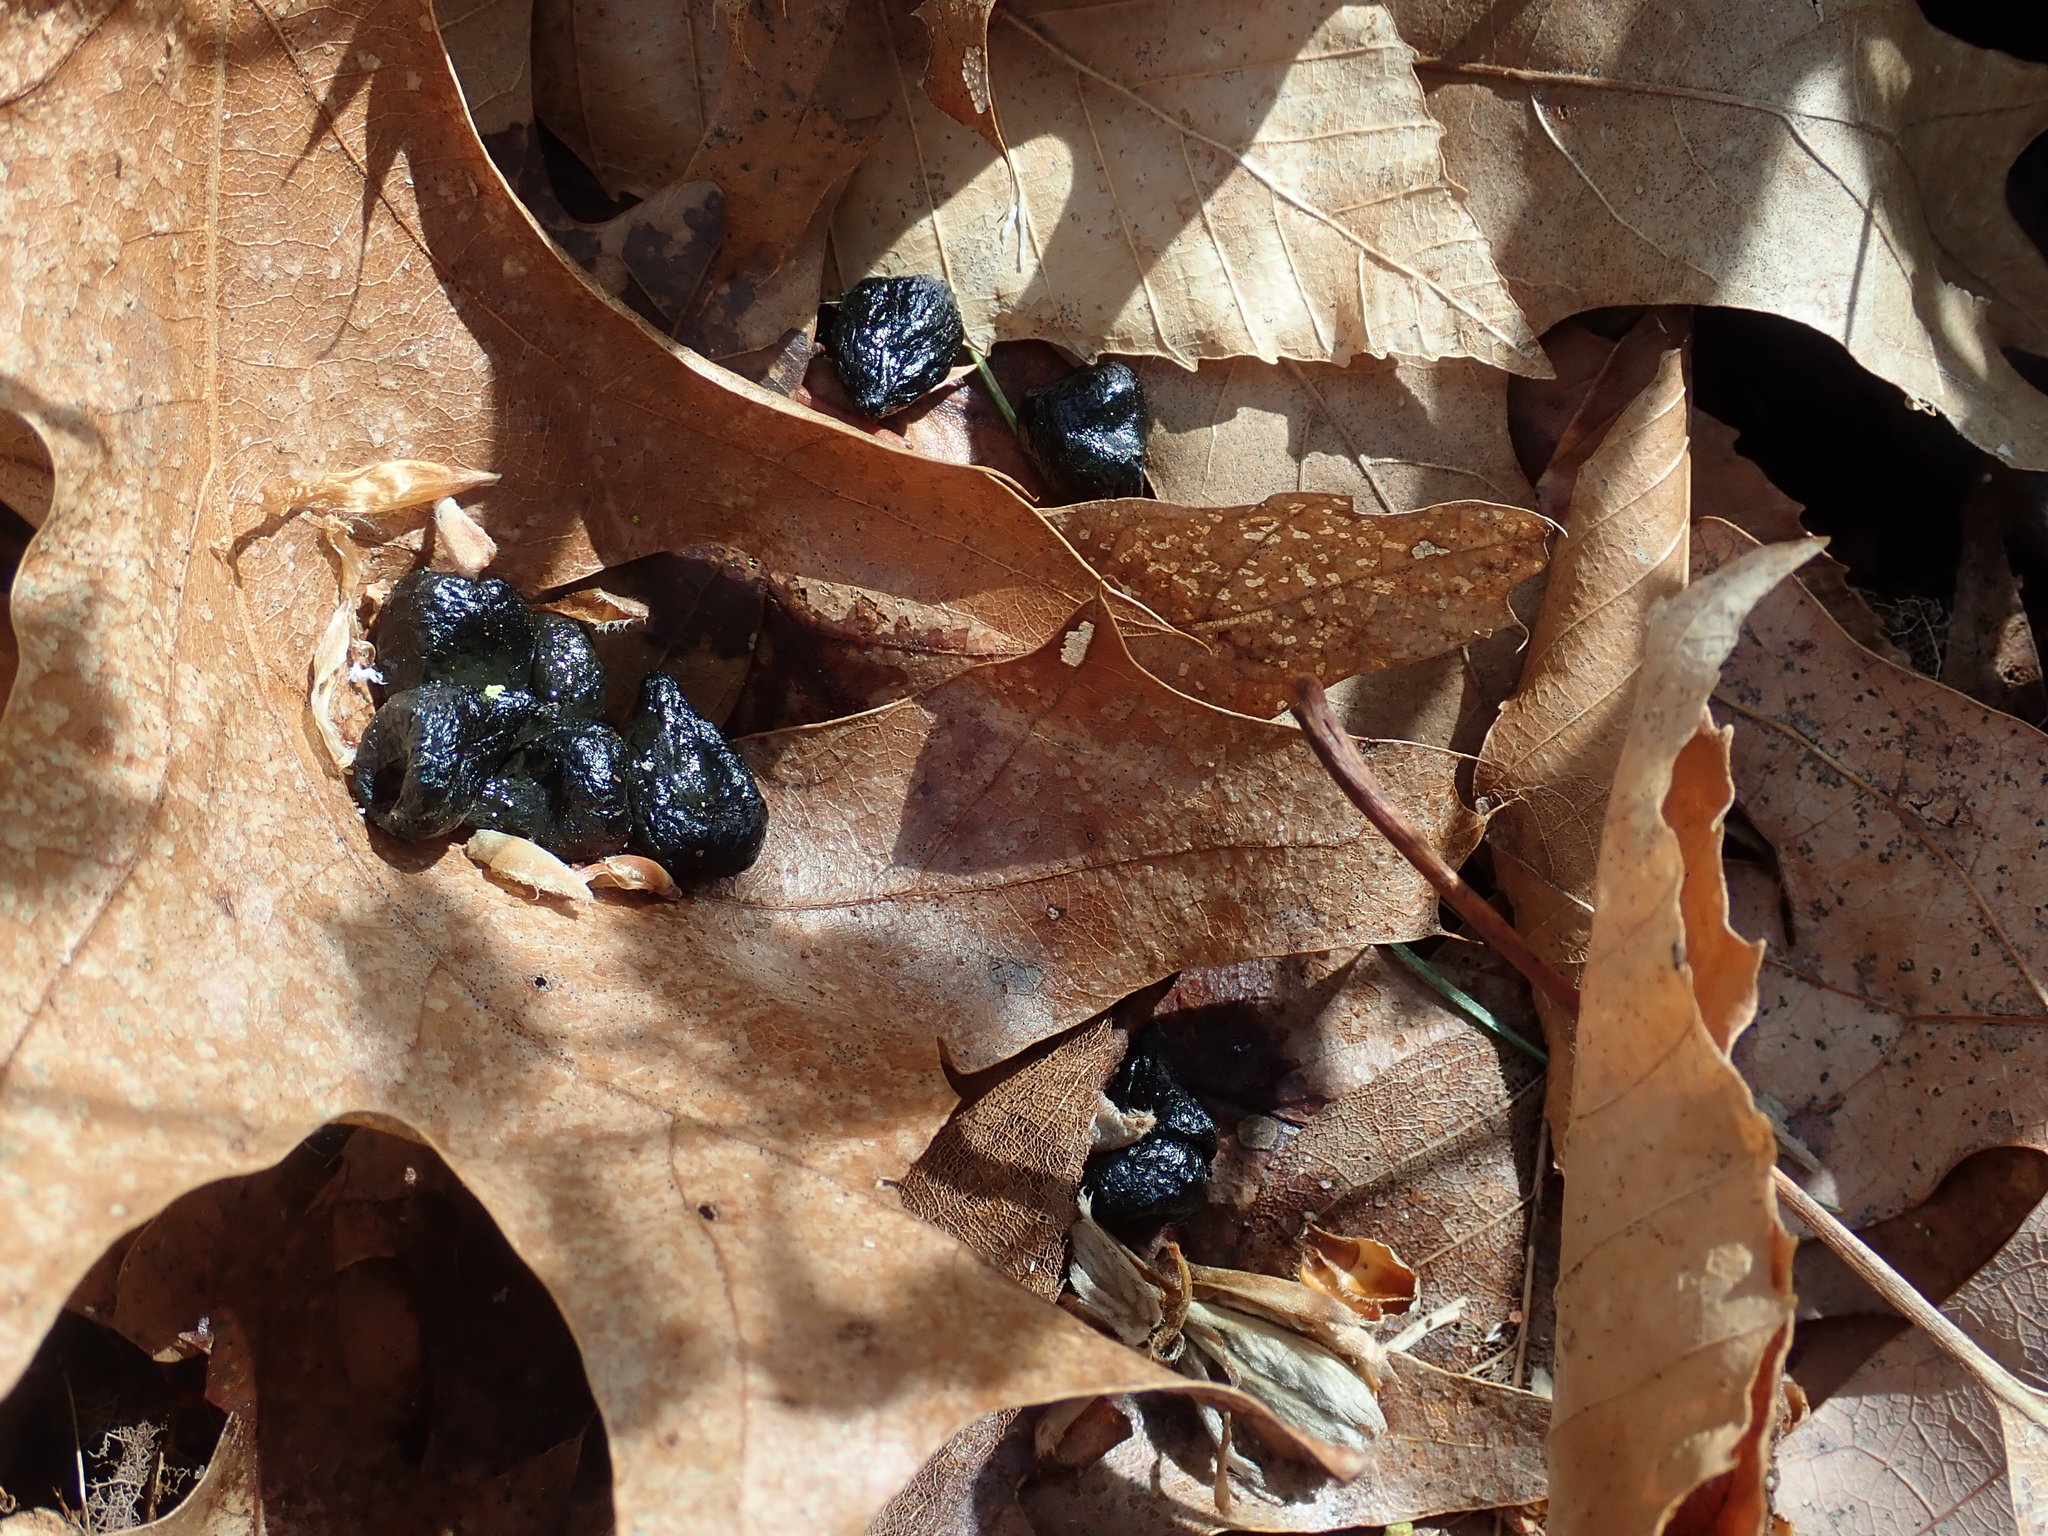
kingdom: Animalia
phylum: Chordata
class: Mammalia
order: Artiodactyla
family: Cervidae
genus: Odocoileus
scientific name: Odocoileus virginianus
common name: White-tailed deer
